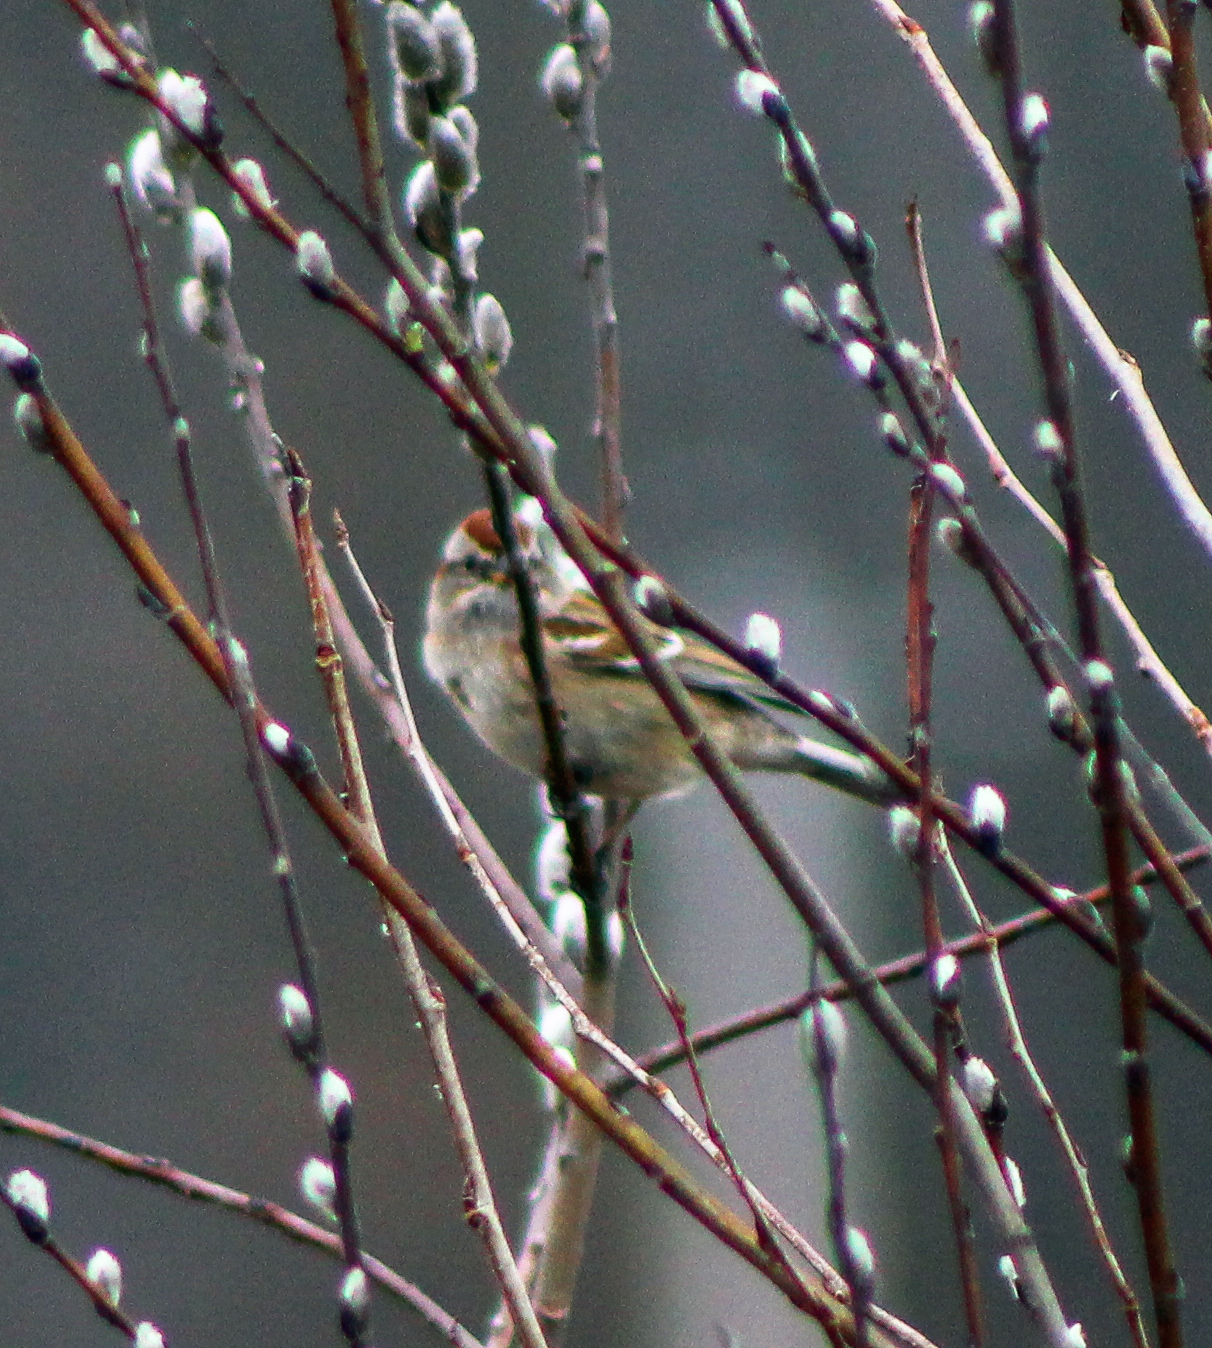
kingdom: Animalia
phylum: Chordata
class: Aves
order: Passeriformes
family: Passerellidae
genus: Spizelloides
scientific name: Spizelloides arborea
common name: American tree sparrow
